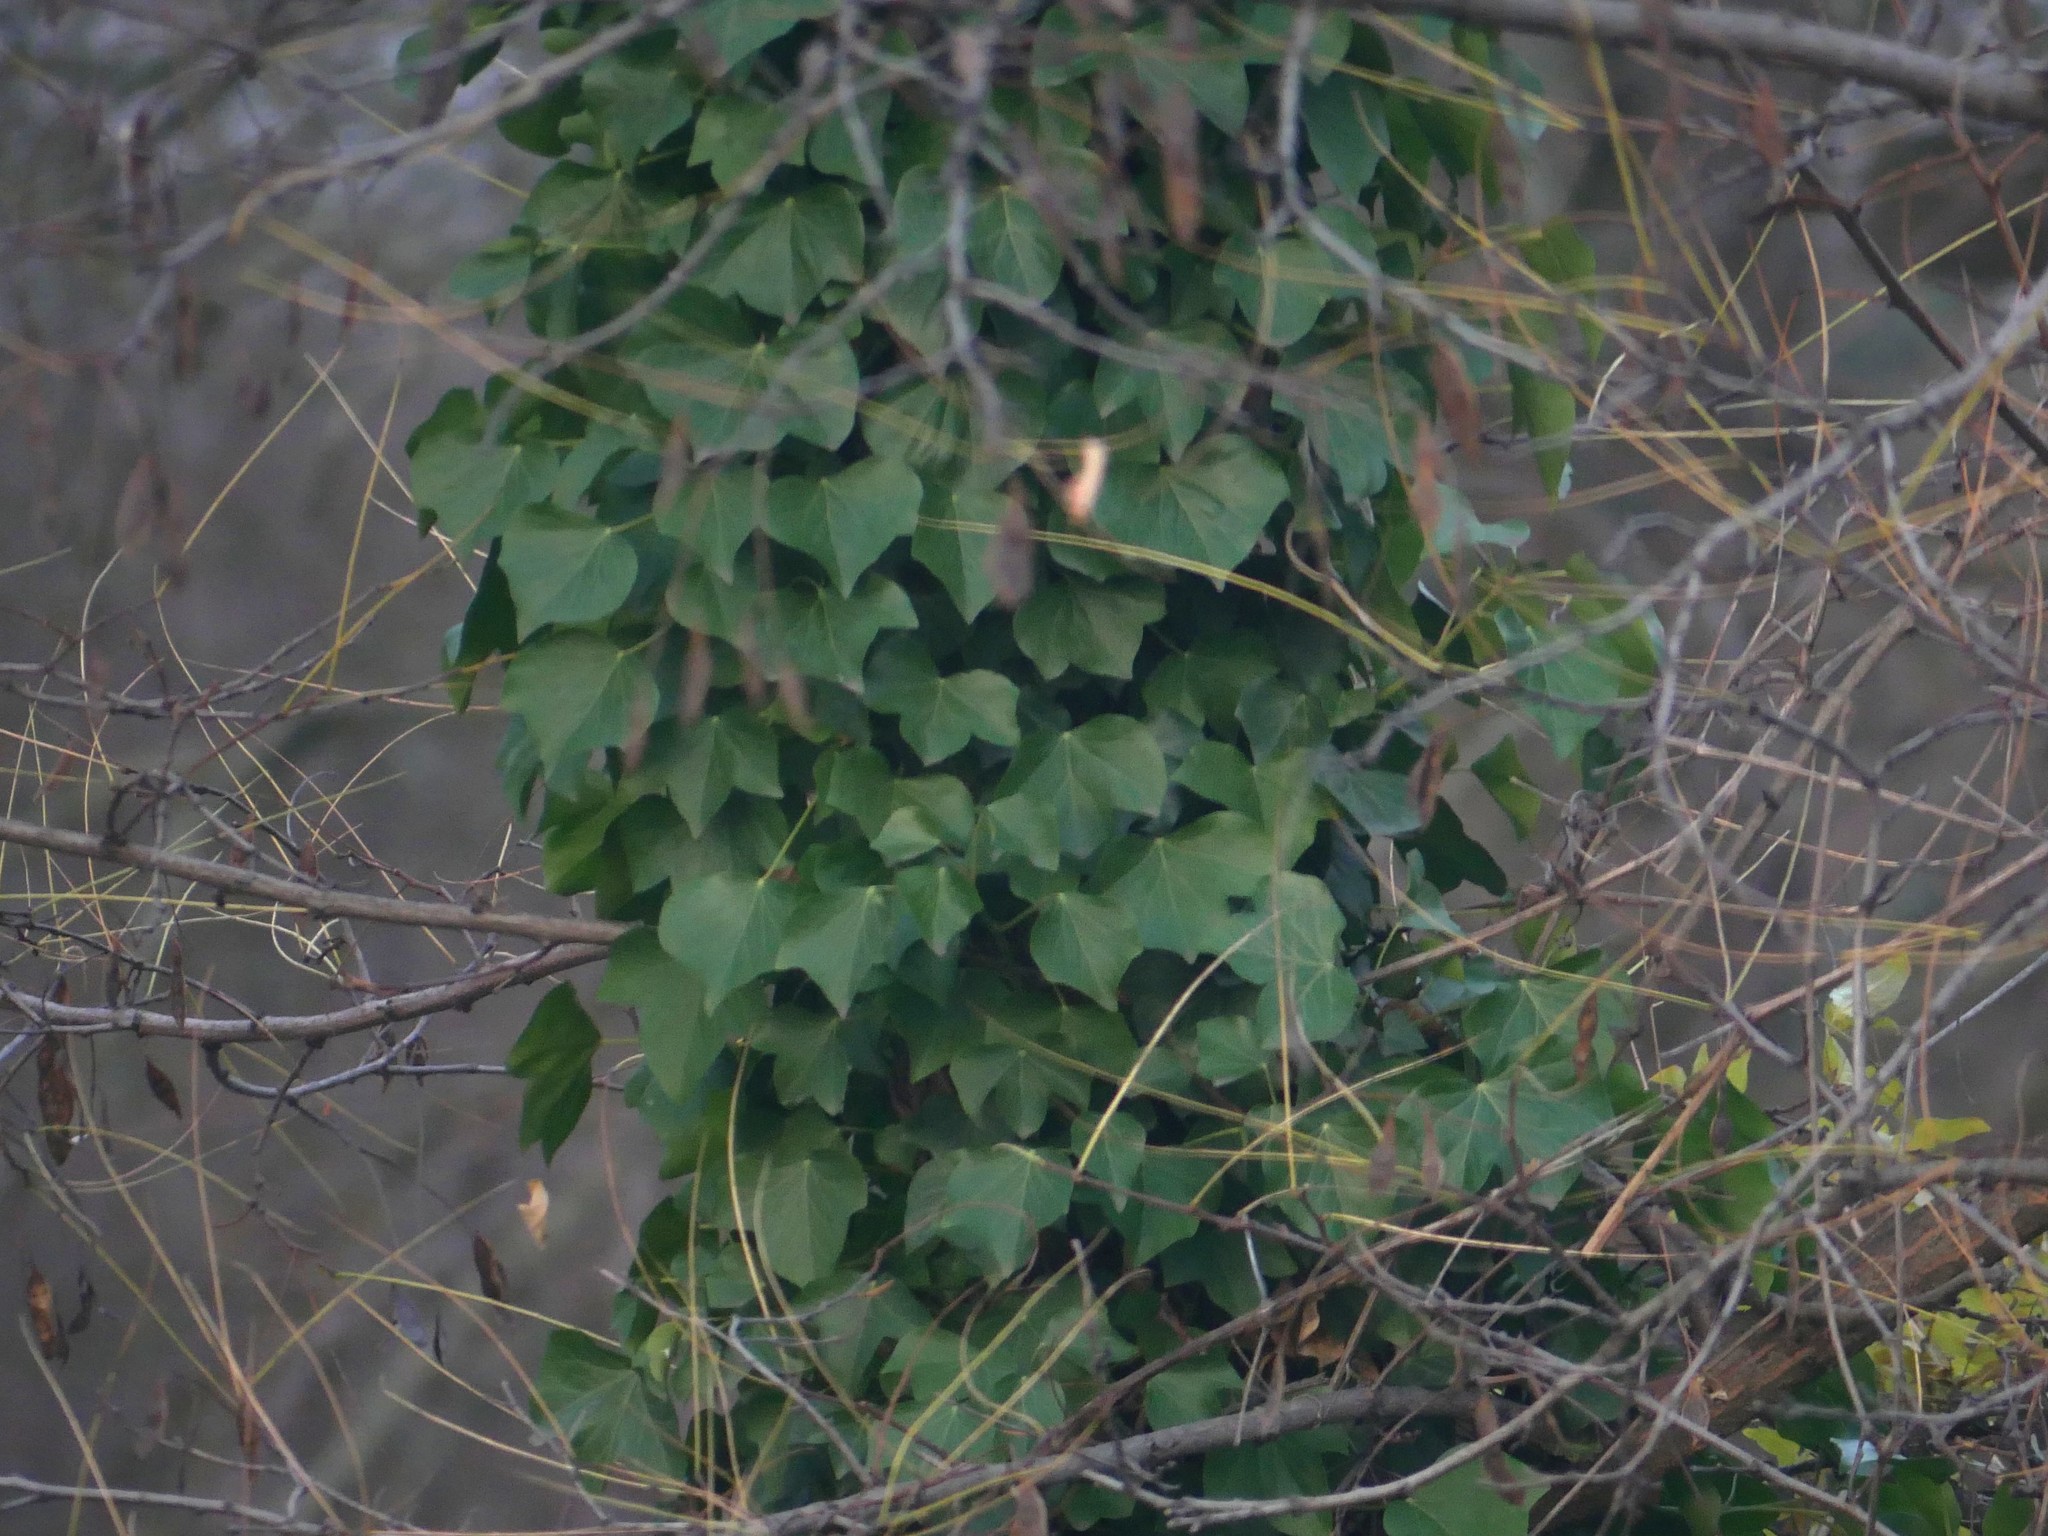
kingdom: Plantae
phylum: Tracheophyta
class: Magnoliopsida
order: Apiales
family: Araliaceae
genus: Hedera
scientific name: Hedera helix
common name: Ivy
